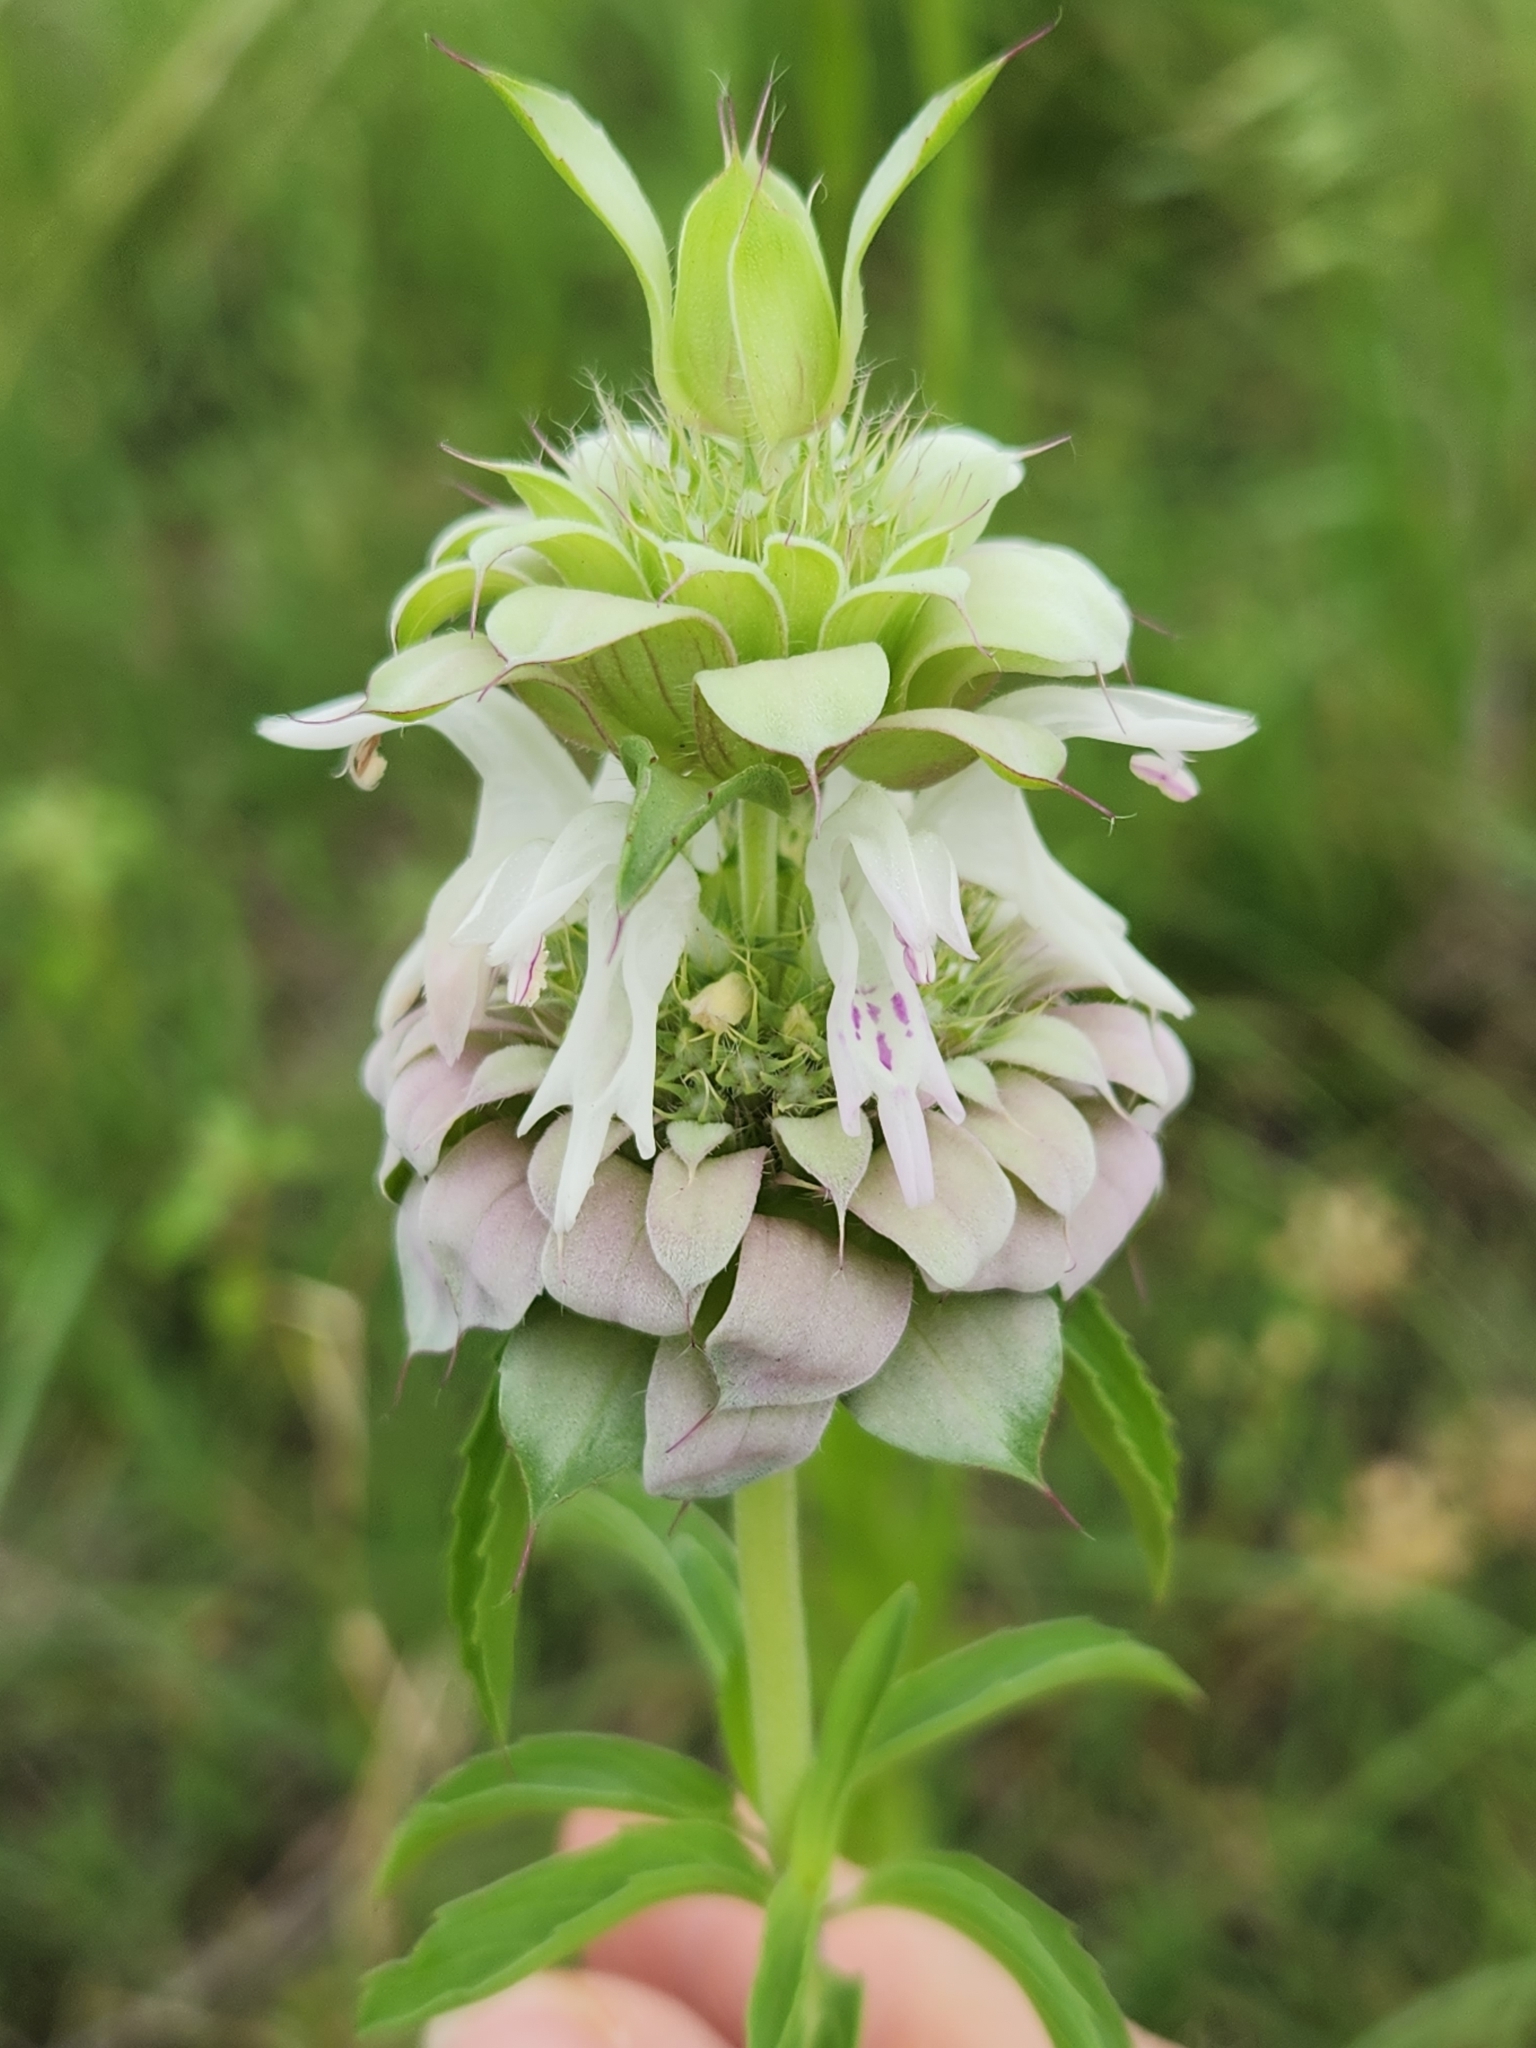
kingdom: Plantae
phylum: Tracheophyta
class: Magnoliopsida
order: Lamiales
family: Lamiaceae
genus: Monarda
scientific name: Monarda citriodora
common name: Lemon beebalm
